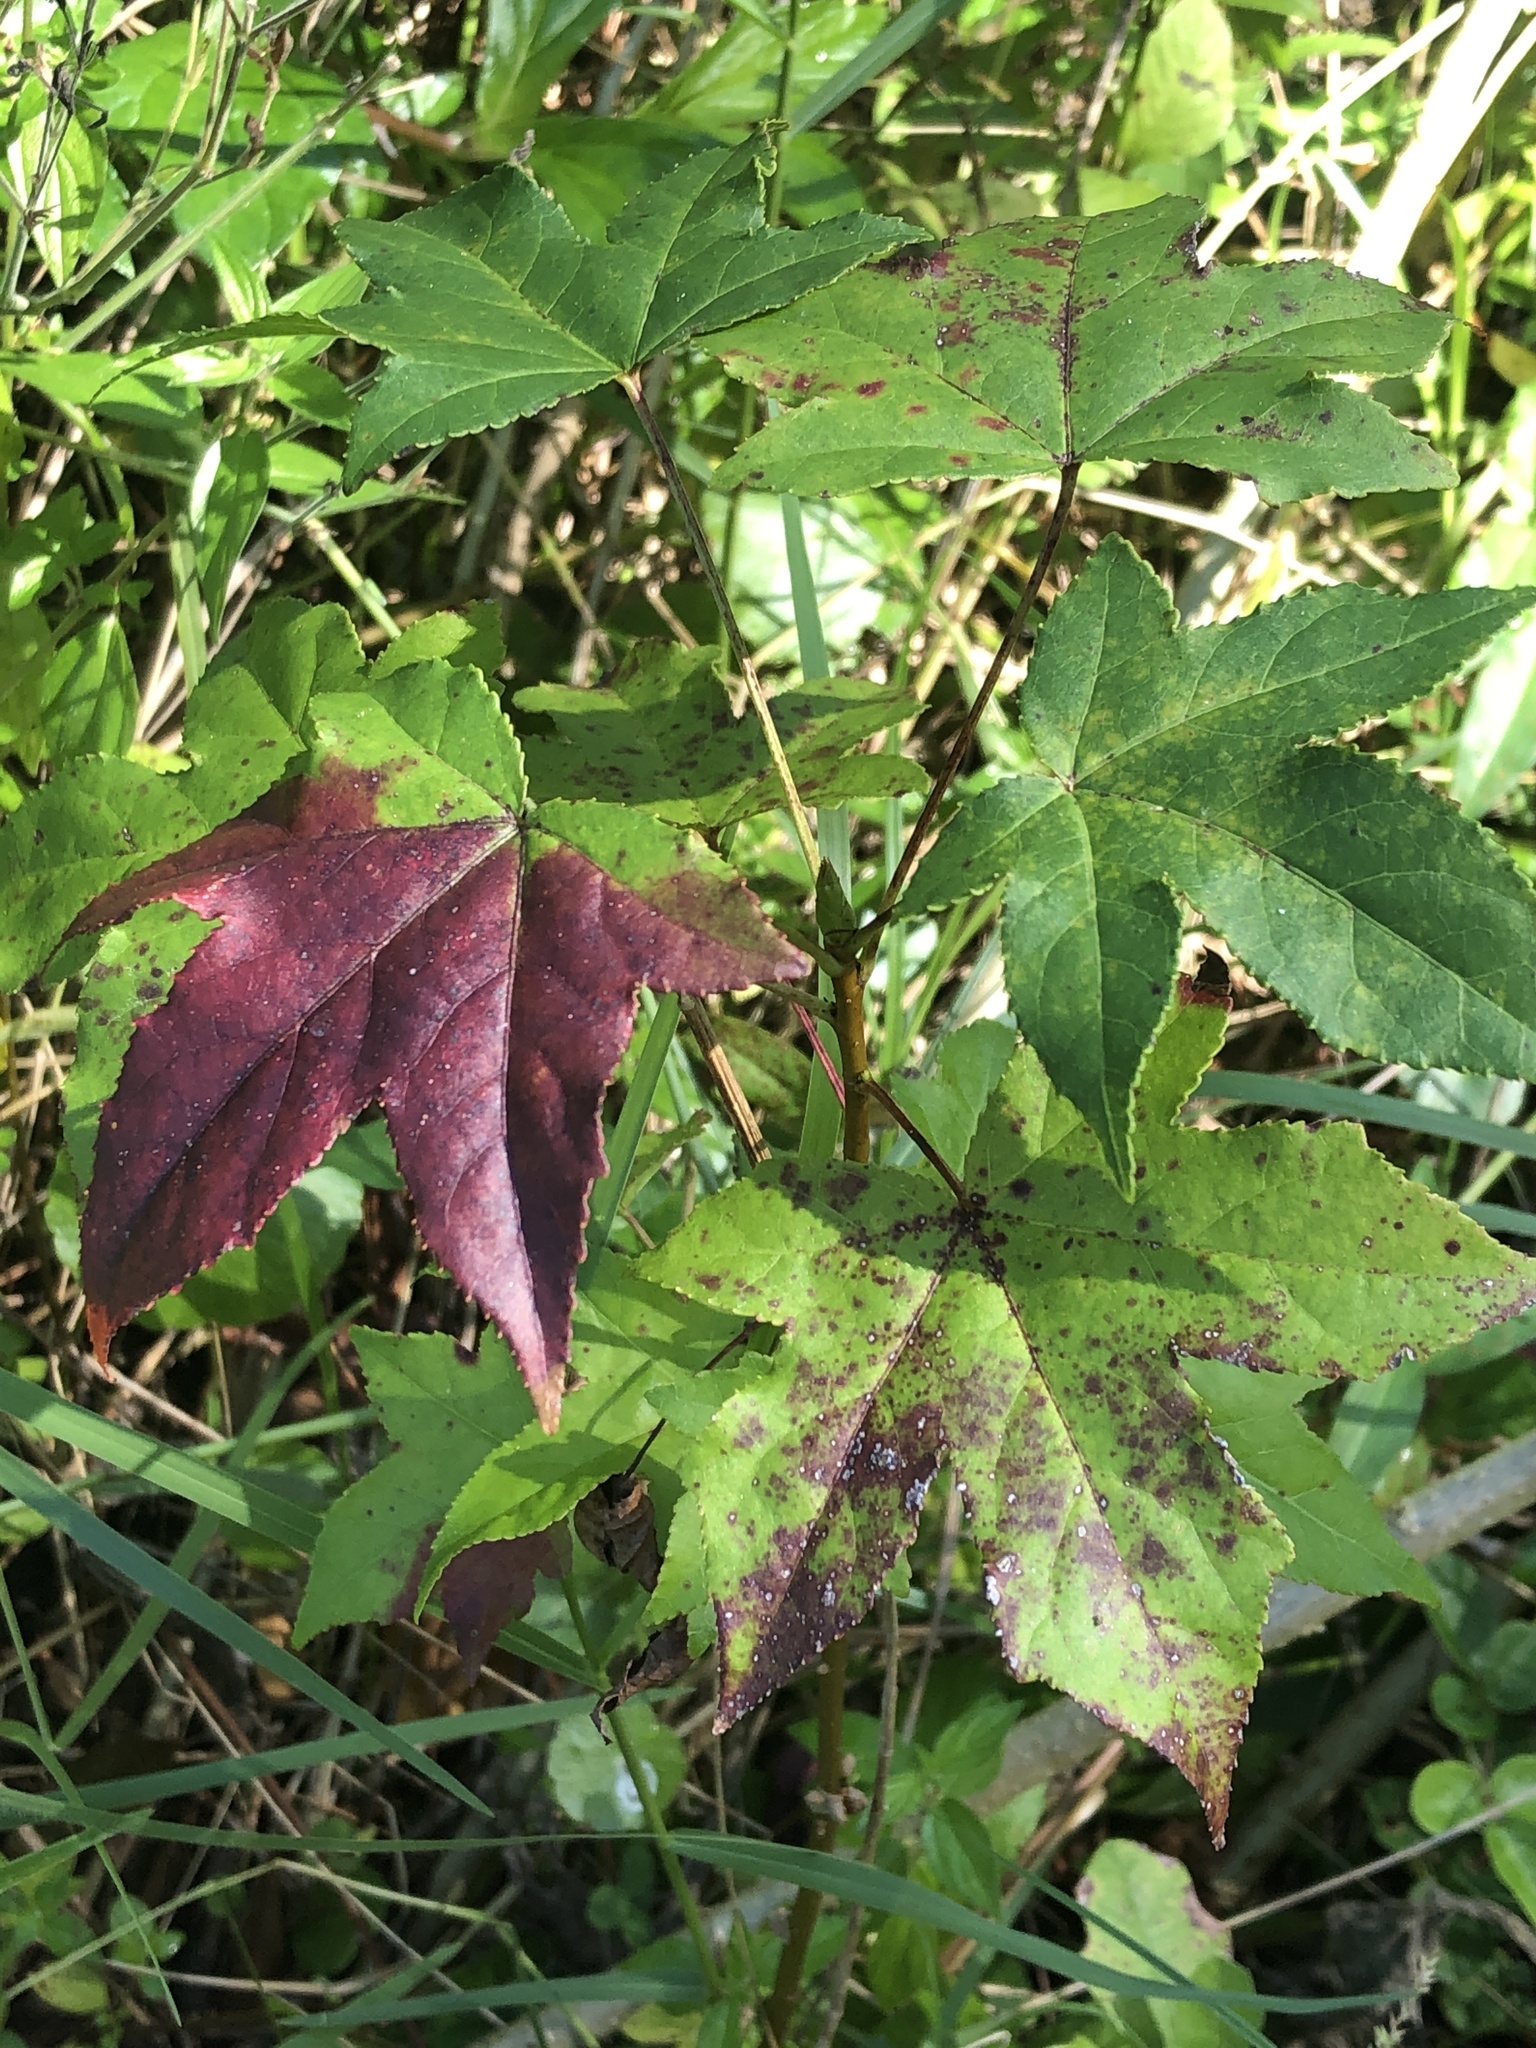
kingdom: Plantae
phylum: Tracheophyta
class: Magnoliopsida
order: Saxifragales
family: Altingiaceae
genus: Liquidambar
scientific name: Liquidambar styraciflua
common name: Sweet gum
